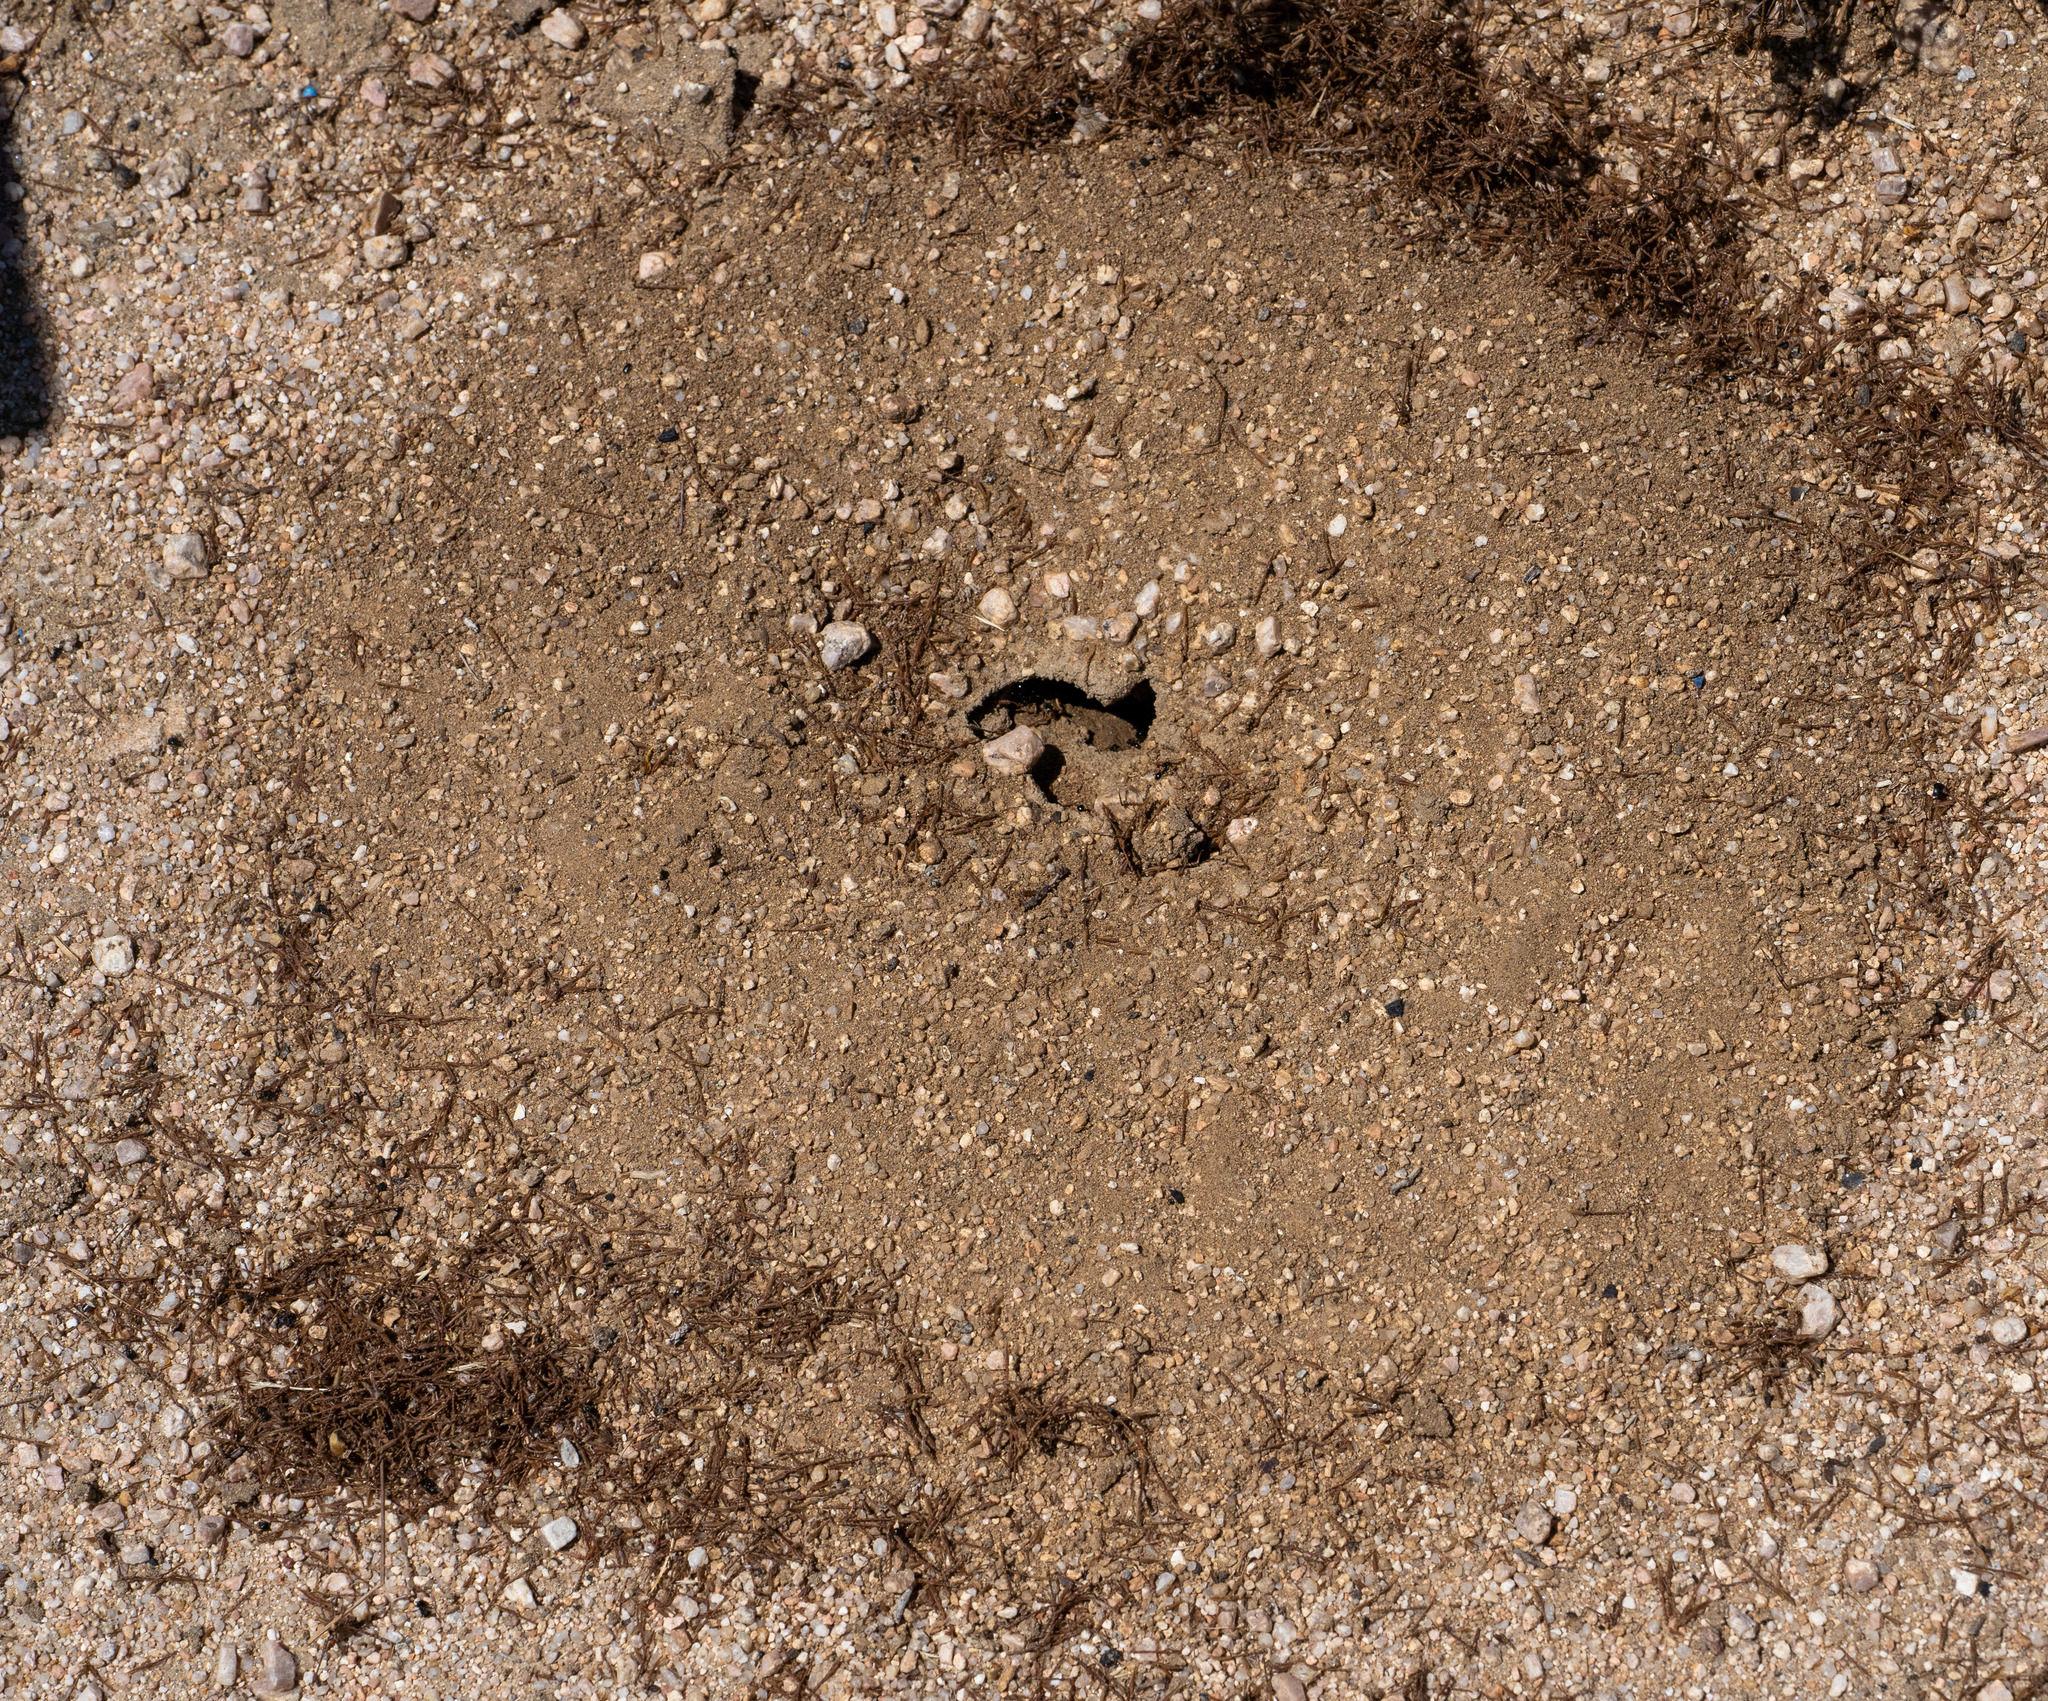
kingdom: Animalia
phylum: Arthropoda
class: Insecta
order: Hymenoptera
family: Formicidae
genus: Messor
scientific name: Messor pergandei
